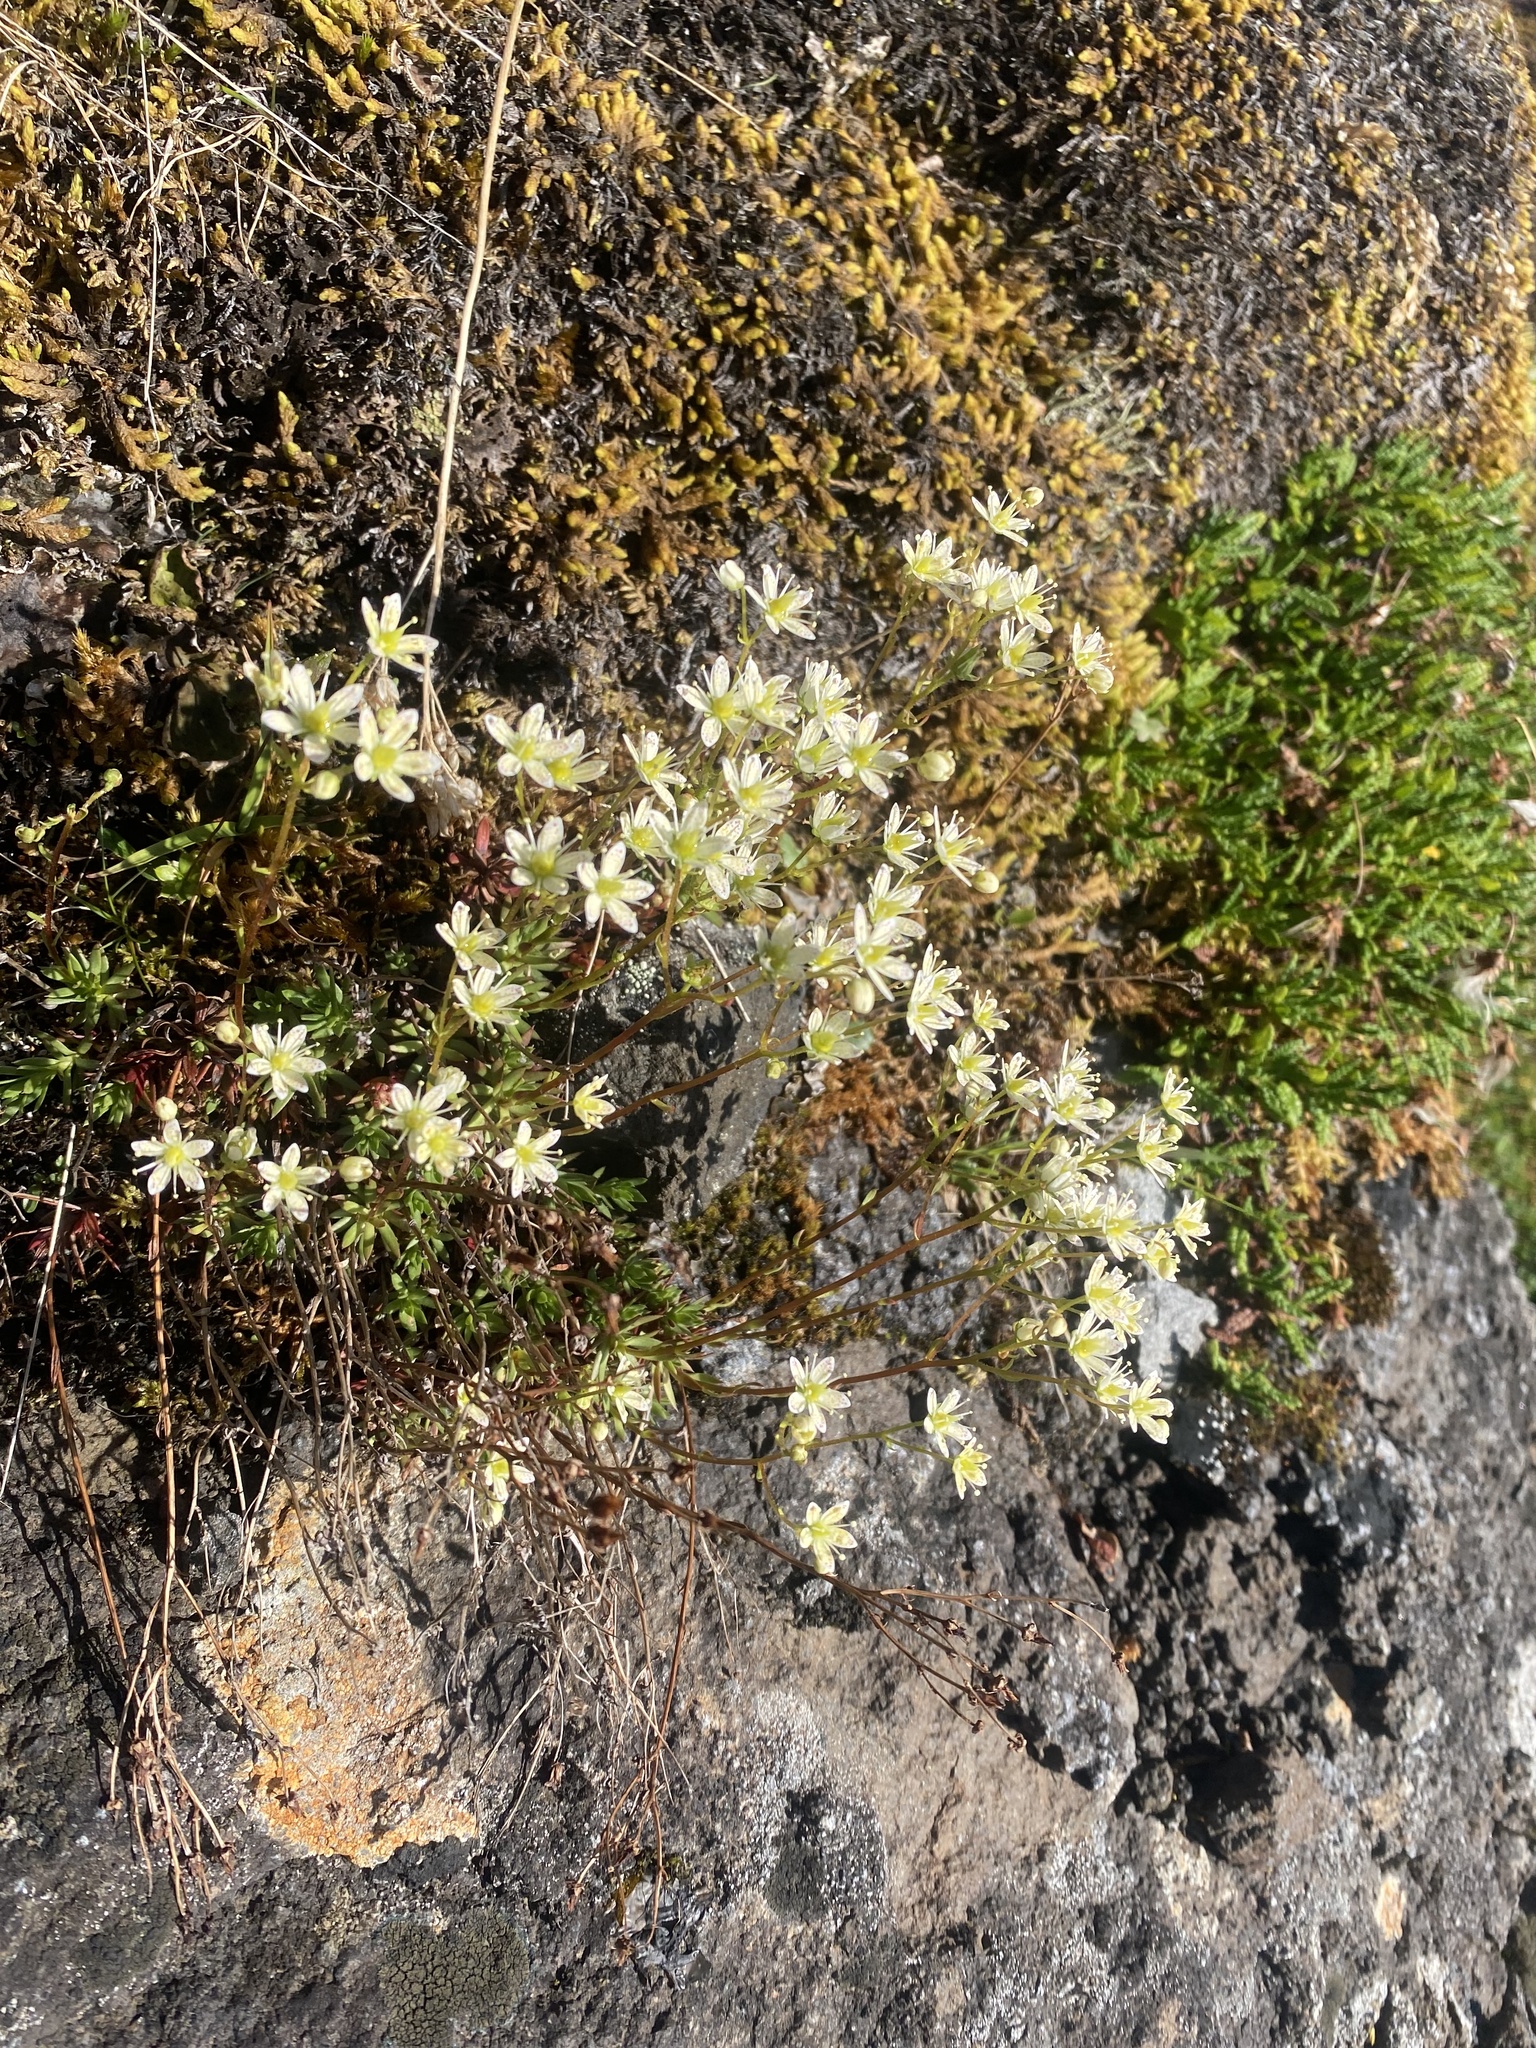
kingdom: Plantae
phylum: Tracheophyta
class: Magnoliopsida
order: Saxifragales
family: Saxifragaceae
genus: Saxifraga
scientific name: Saxifraga
